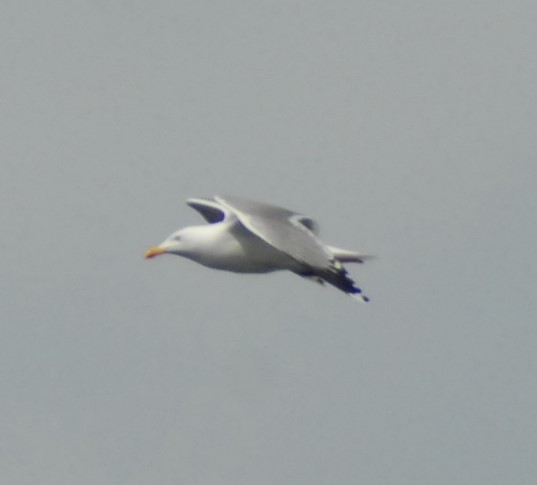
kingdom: Animalia
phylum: Chordata
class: Aves
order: Charadriiformes
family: Laridae
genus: Larus
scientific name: Larus michahellis
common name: Yellow-legged gull
